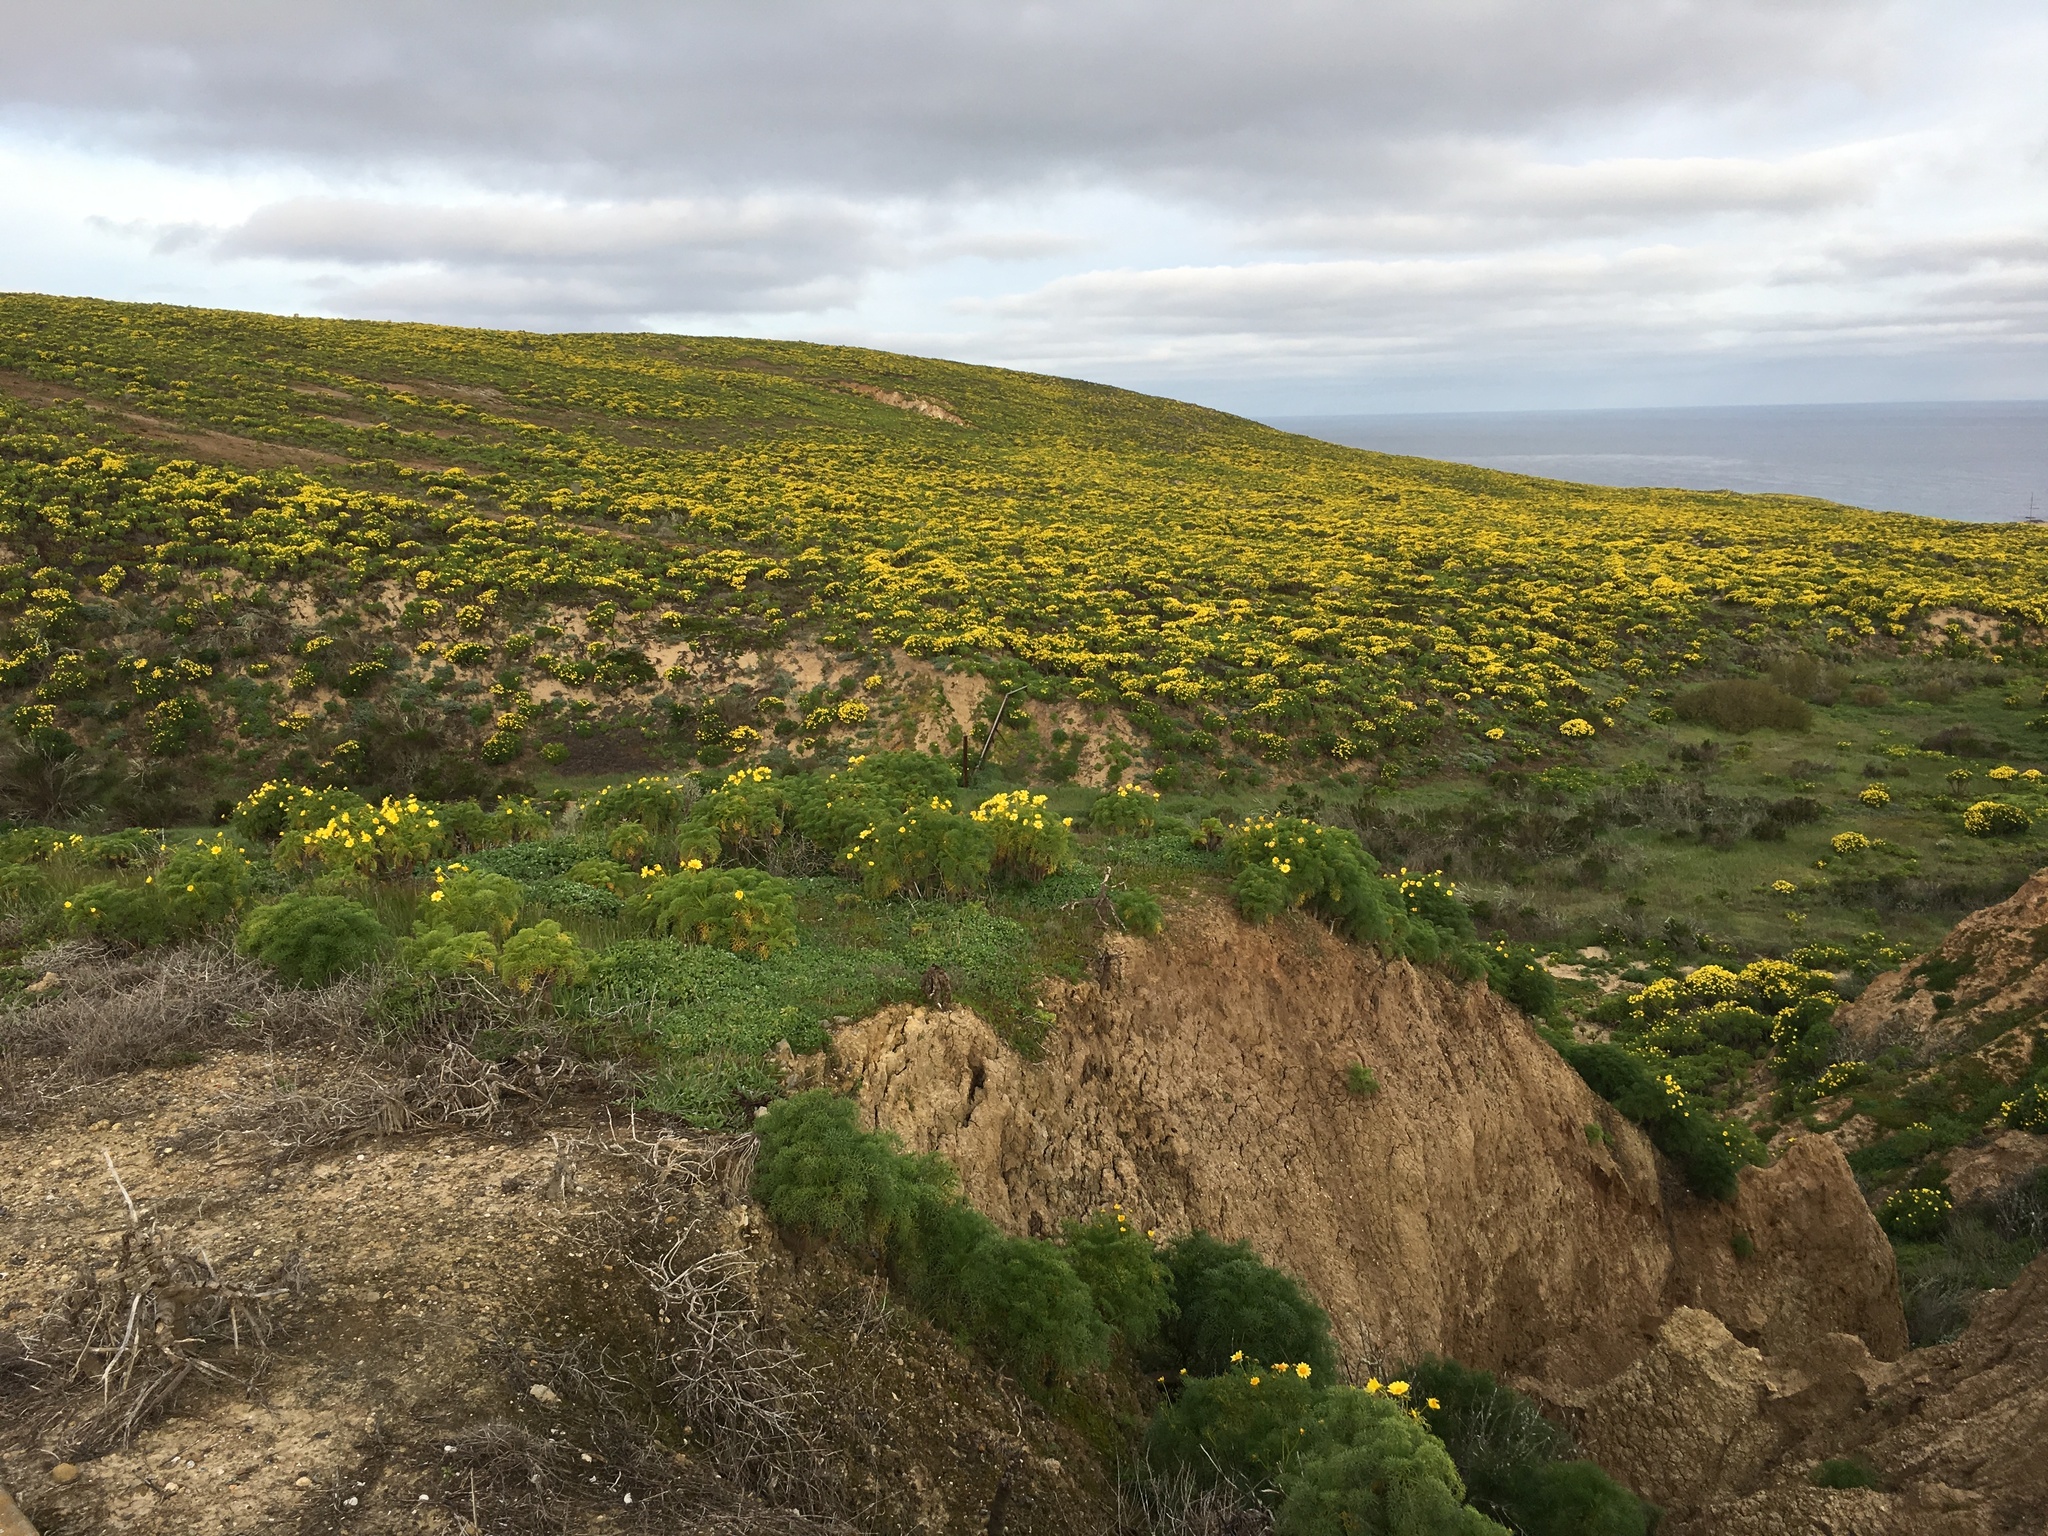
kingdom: Plantae
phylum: Tracheophyta
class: Magnoliopsida
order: Asterales
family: Asteraceae
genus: Coreopsis
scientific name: Coreopsis gigantea
